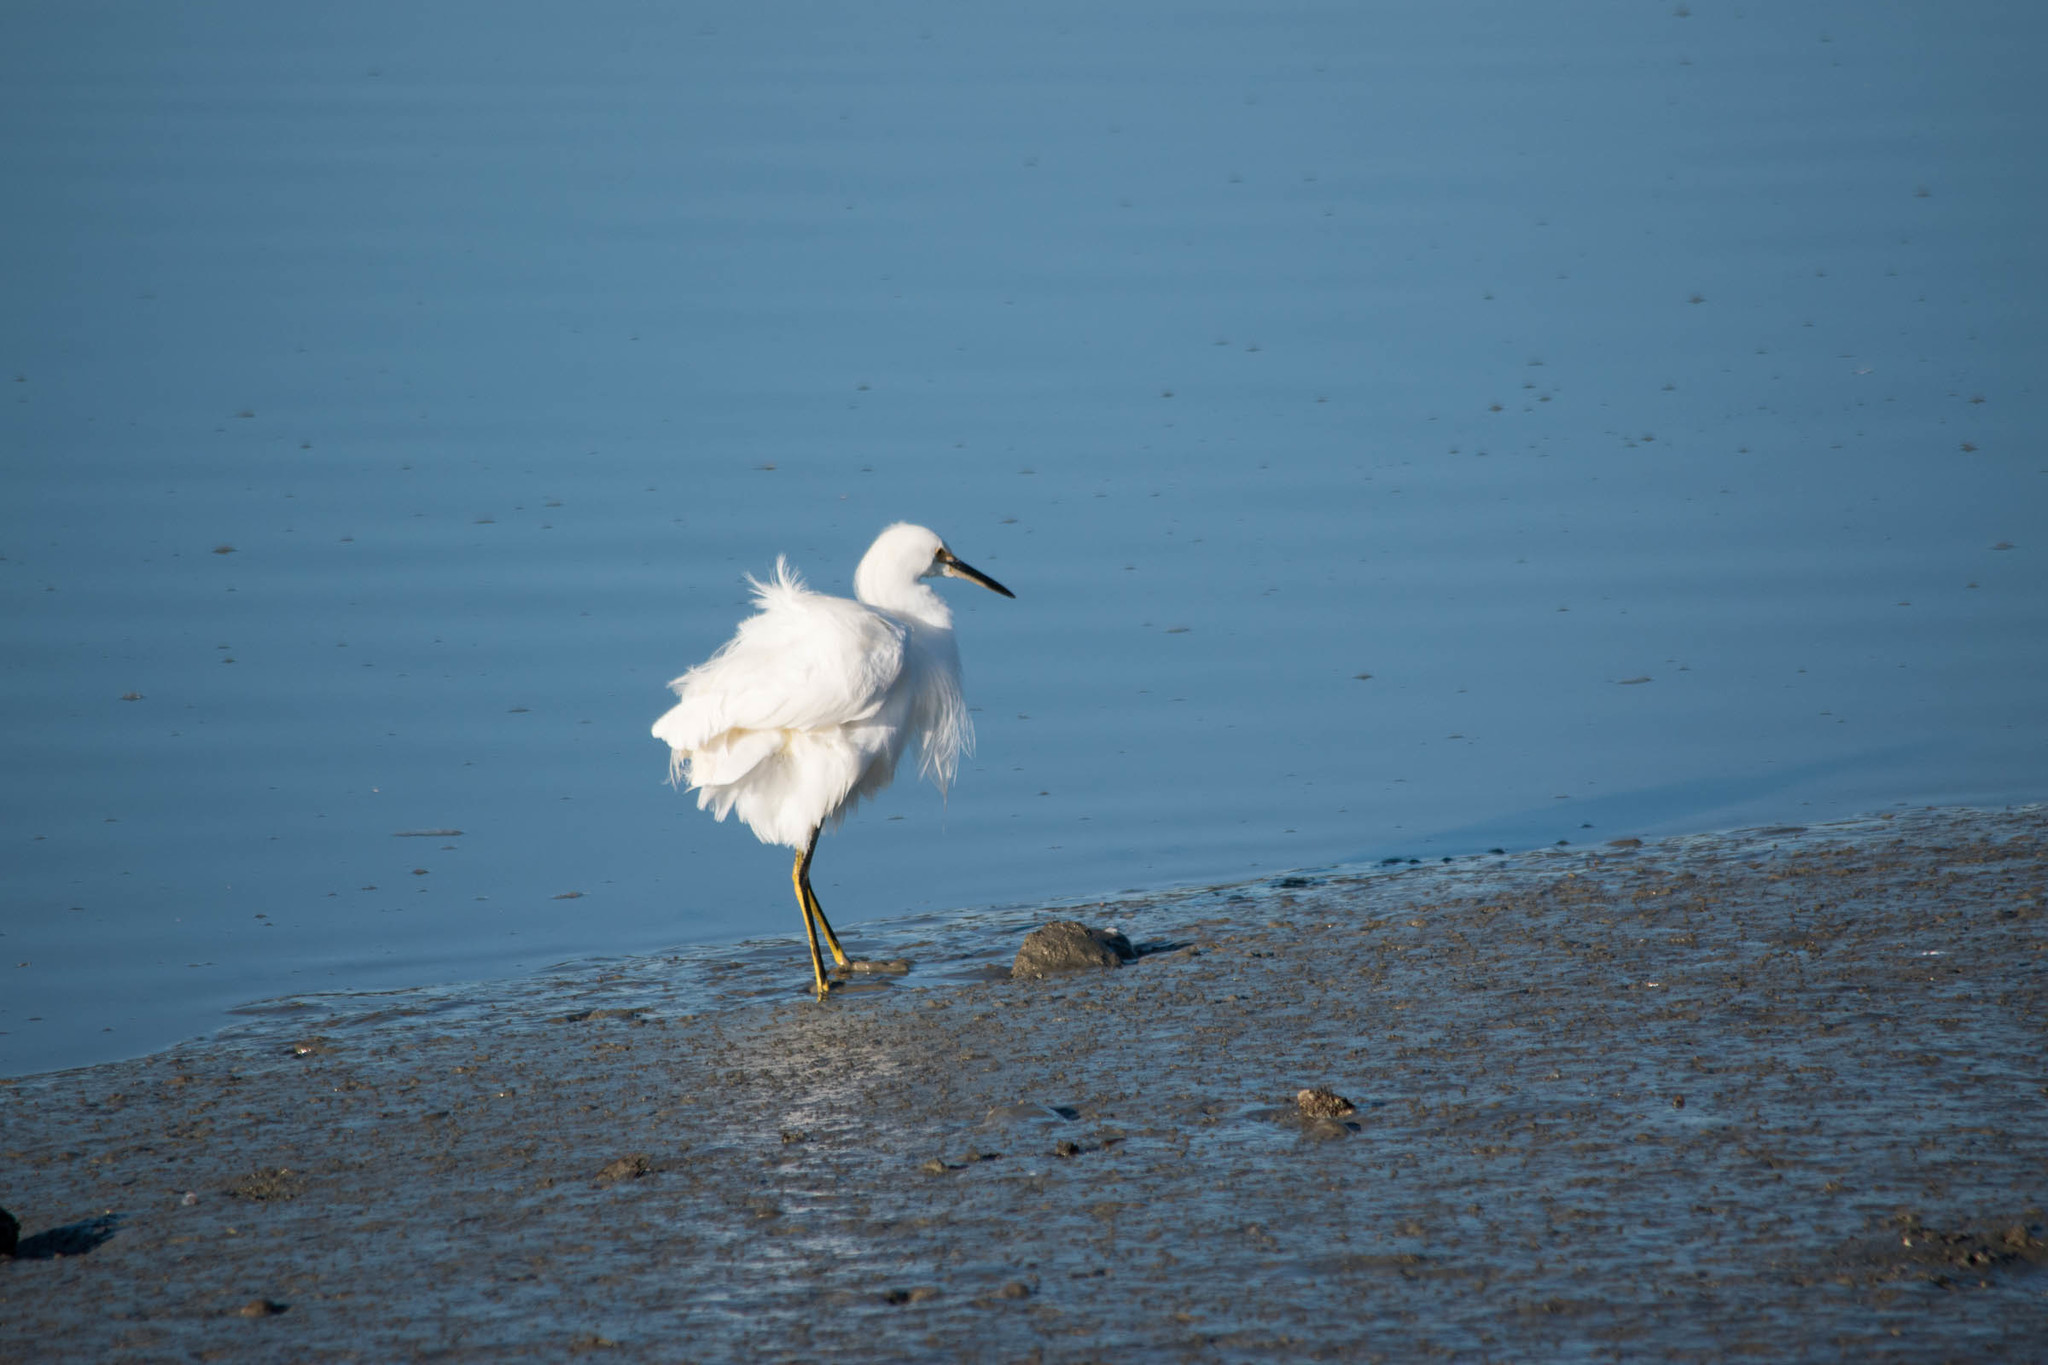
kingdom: Animalia
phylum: Chordata
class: Aves
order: Pelecaniformes
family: Ardeidae
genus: Egretta
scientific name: Egretta thula
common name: Snowy egret
